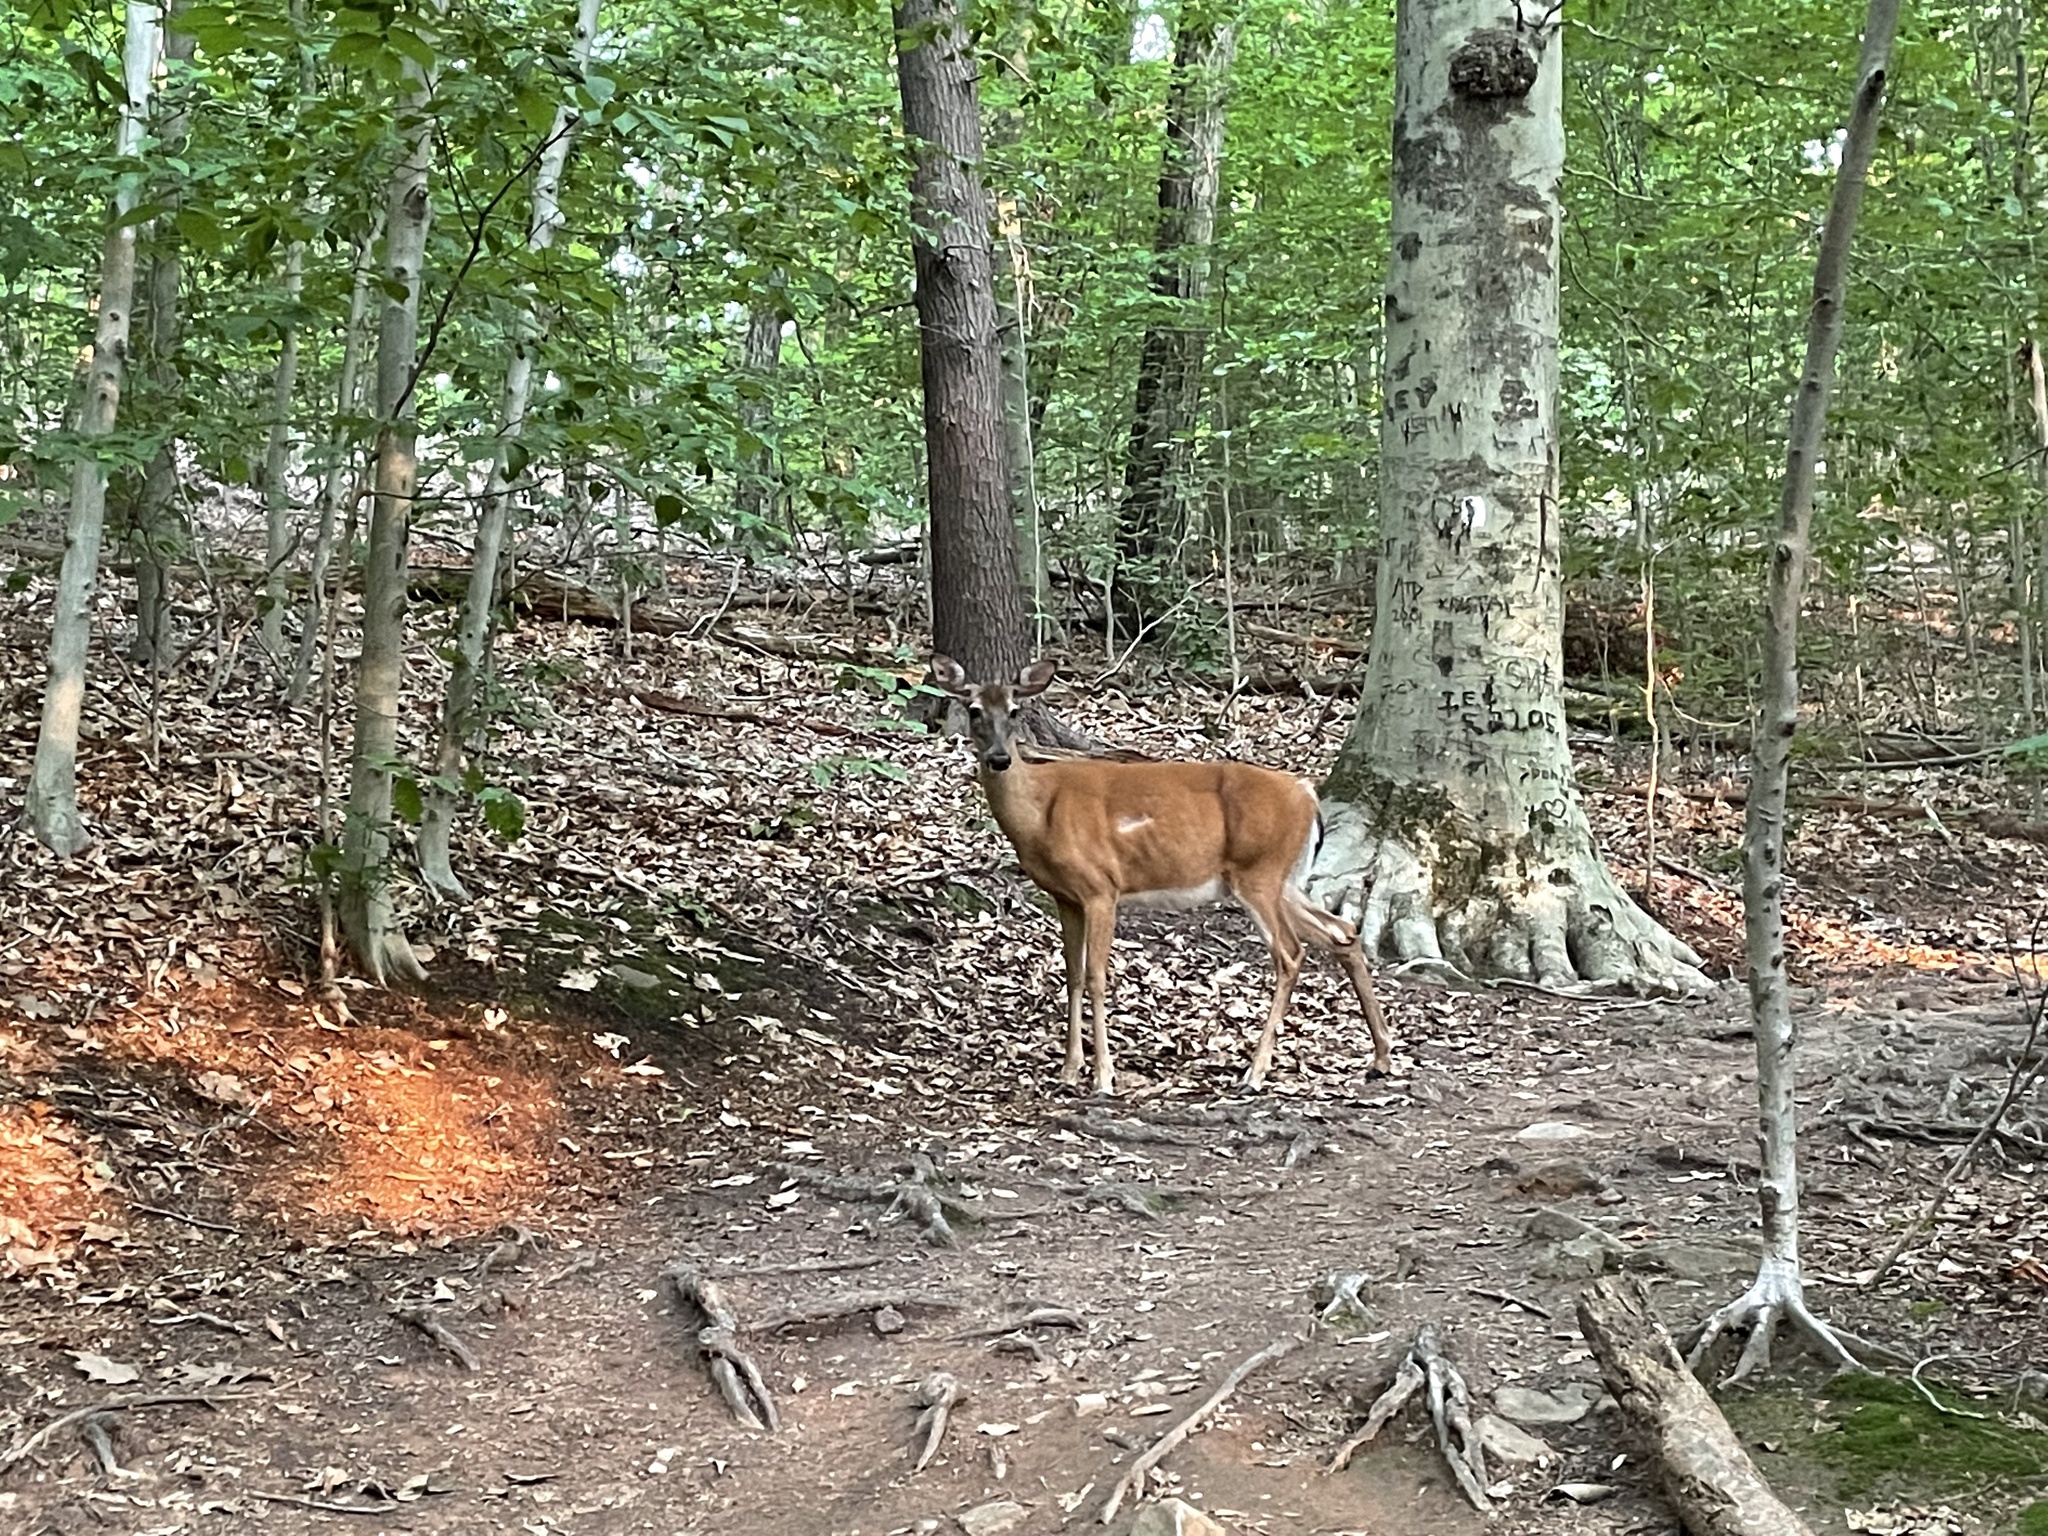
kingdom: Animalia
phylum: Chordata
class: Mammalia
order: Artiodactyla
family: Cervidae
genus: Odocoileus
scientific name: Odocoileus virginianus
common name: White-tailed deer
